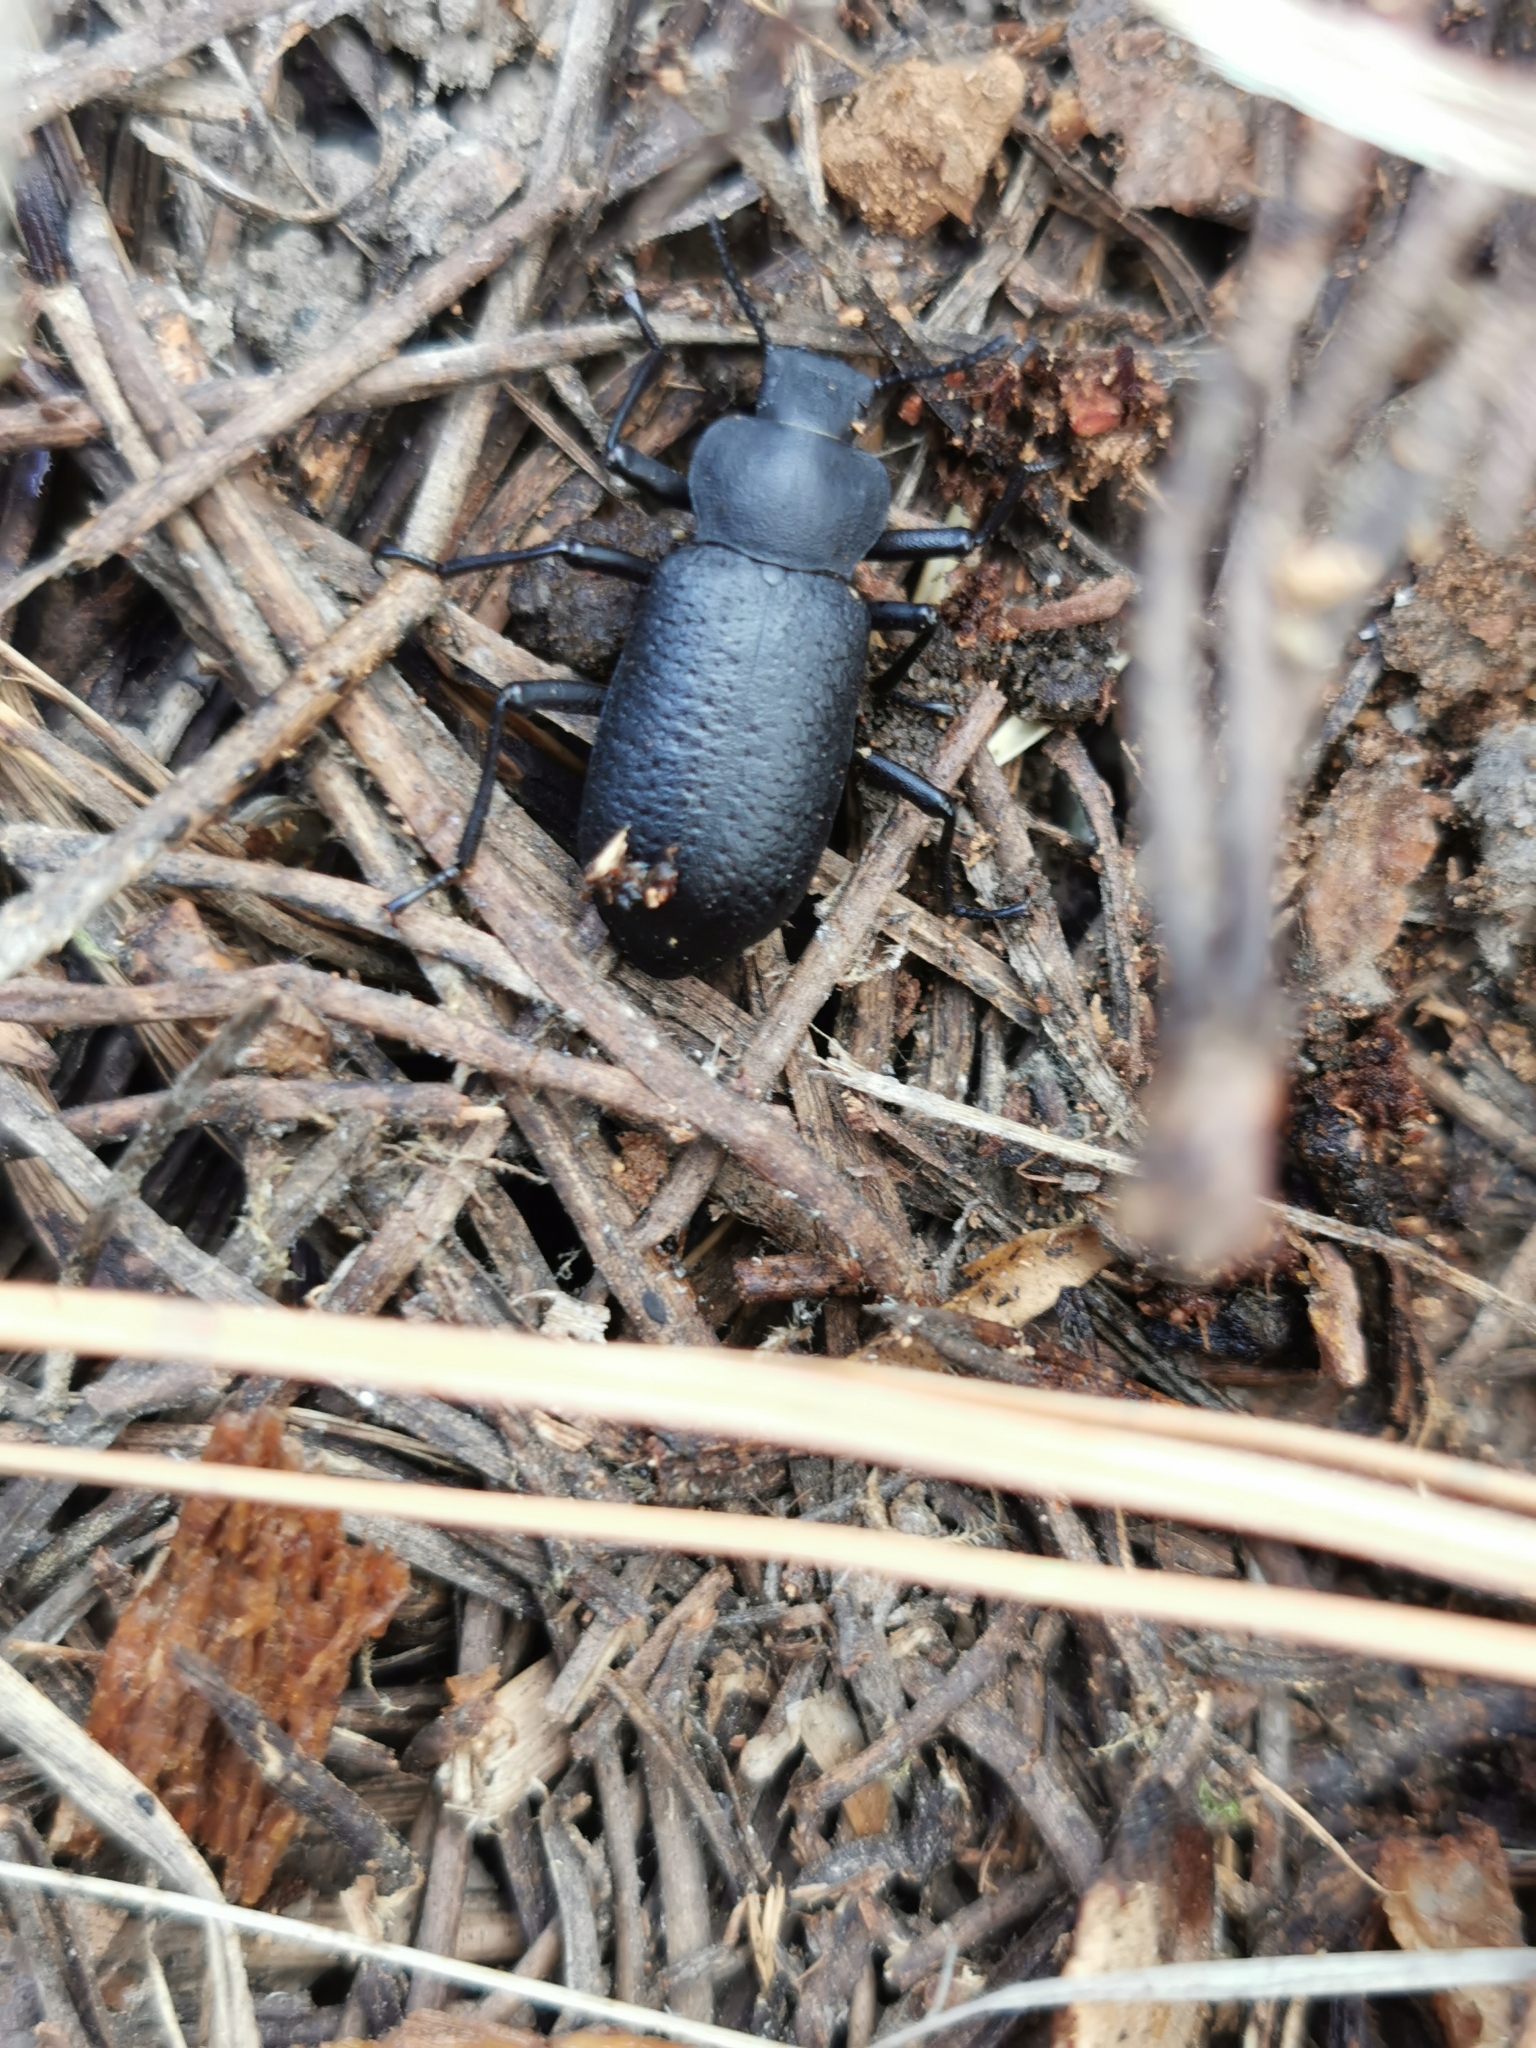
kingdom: Animalia
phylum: Arthropoda
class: Insecta
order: Coleoptera
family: Tenebrionidae
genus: Iphthiminus
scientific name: Iphthiminus serratus
